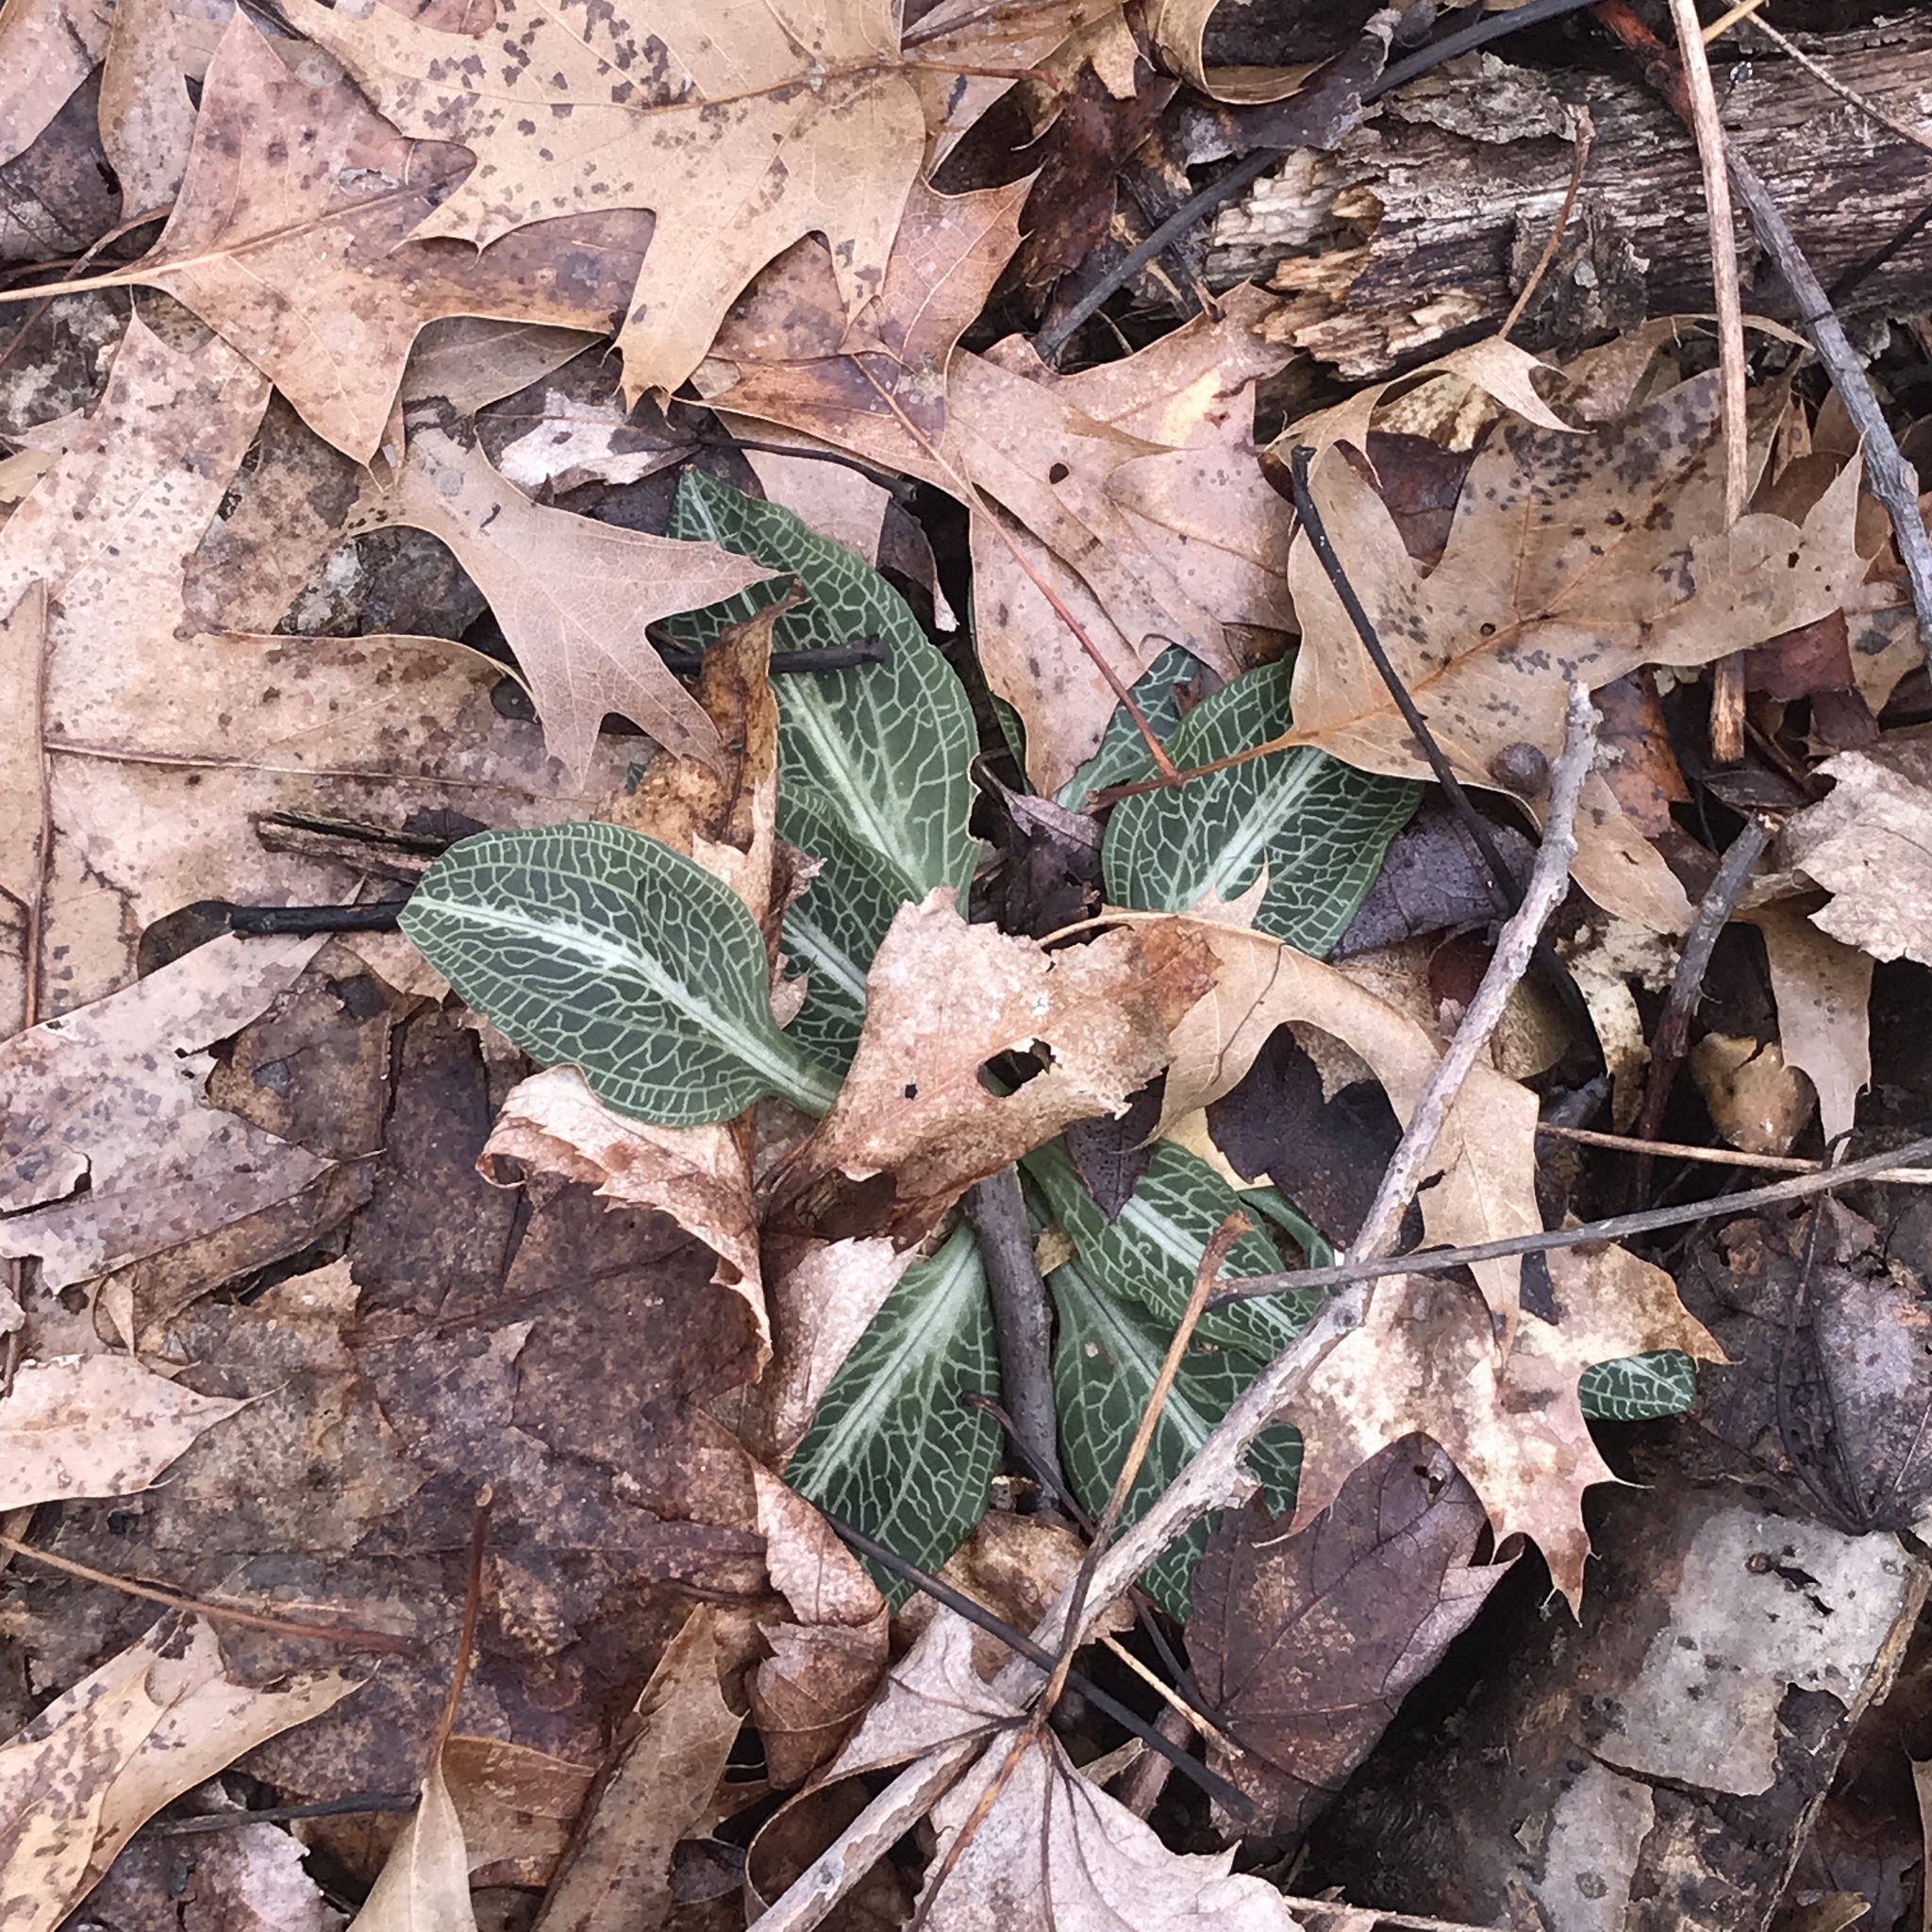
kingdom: Plantae
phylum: Tracheophyta
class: Liliopsida
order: Asparagales
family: Orchidaceae
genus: Goodyera
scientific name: Goodyera pubescens
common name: Downy rattlesnake-plantain
